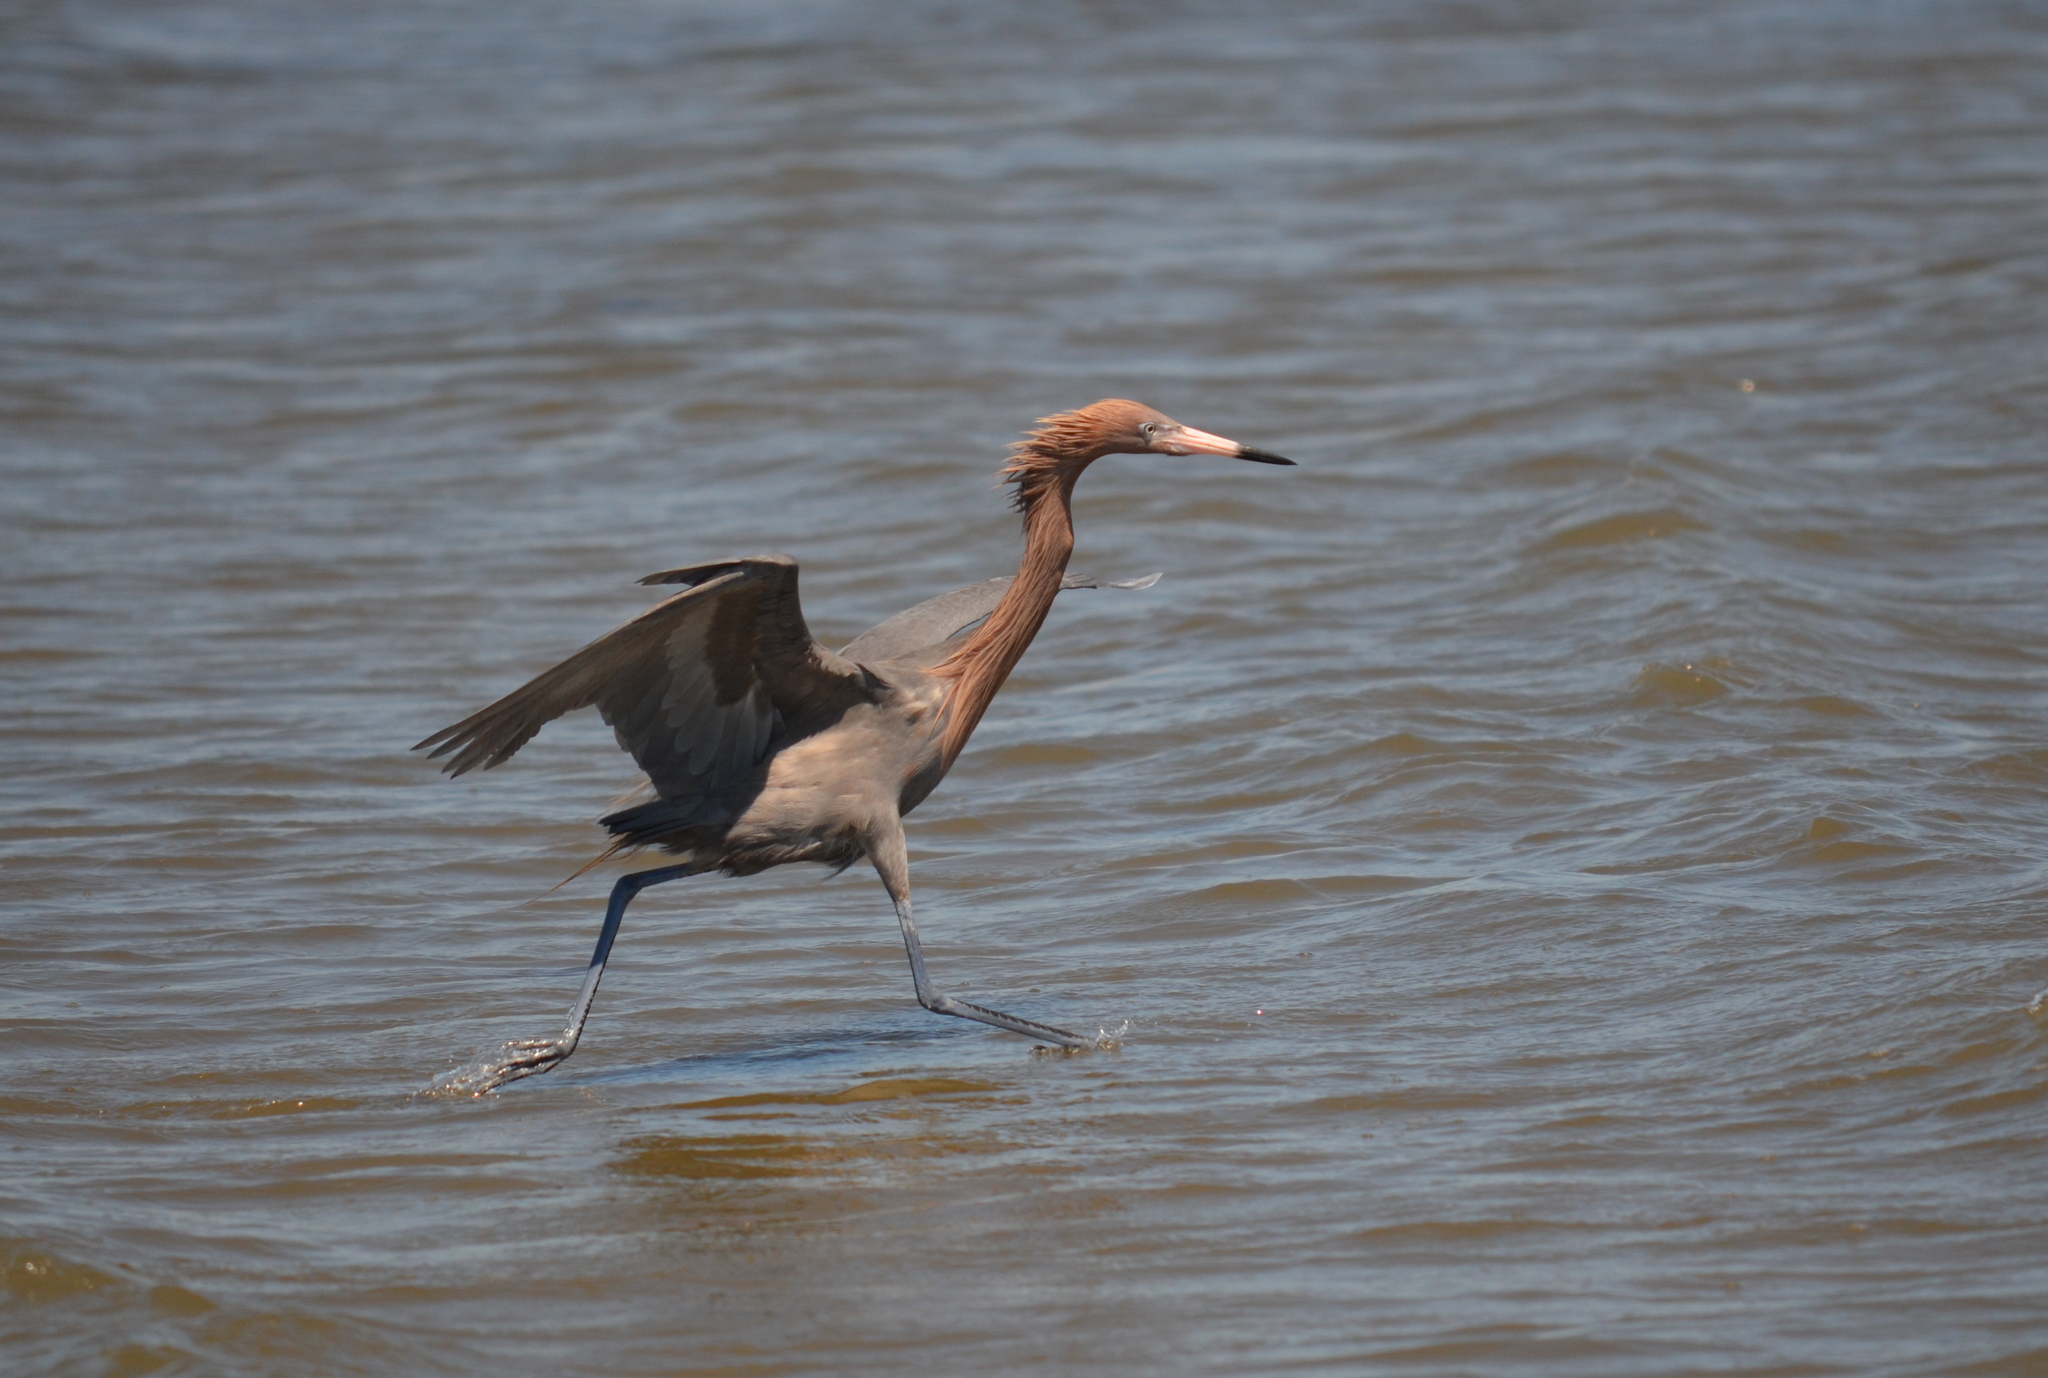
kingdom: Animalia
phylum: Chordata
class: Aves
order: Pelecaniformes
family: Ardeidae
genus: Egretta
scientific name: Egretta rufescens
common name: Reddish egret
